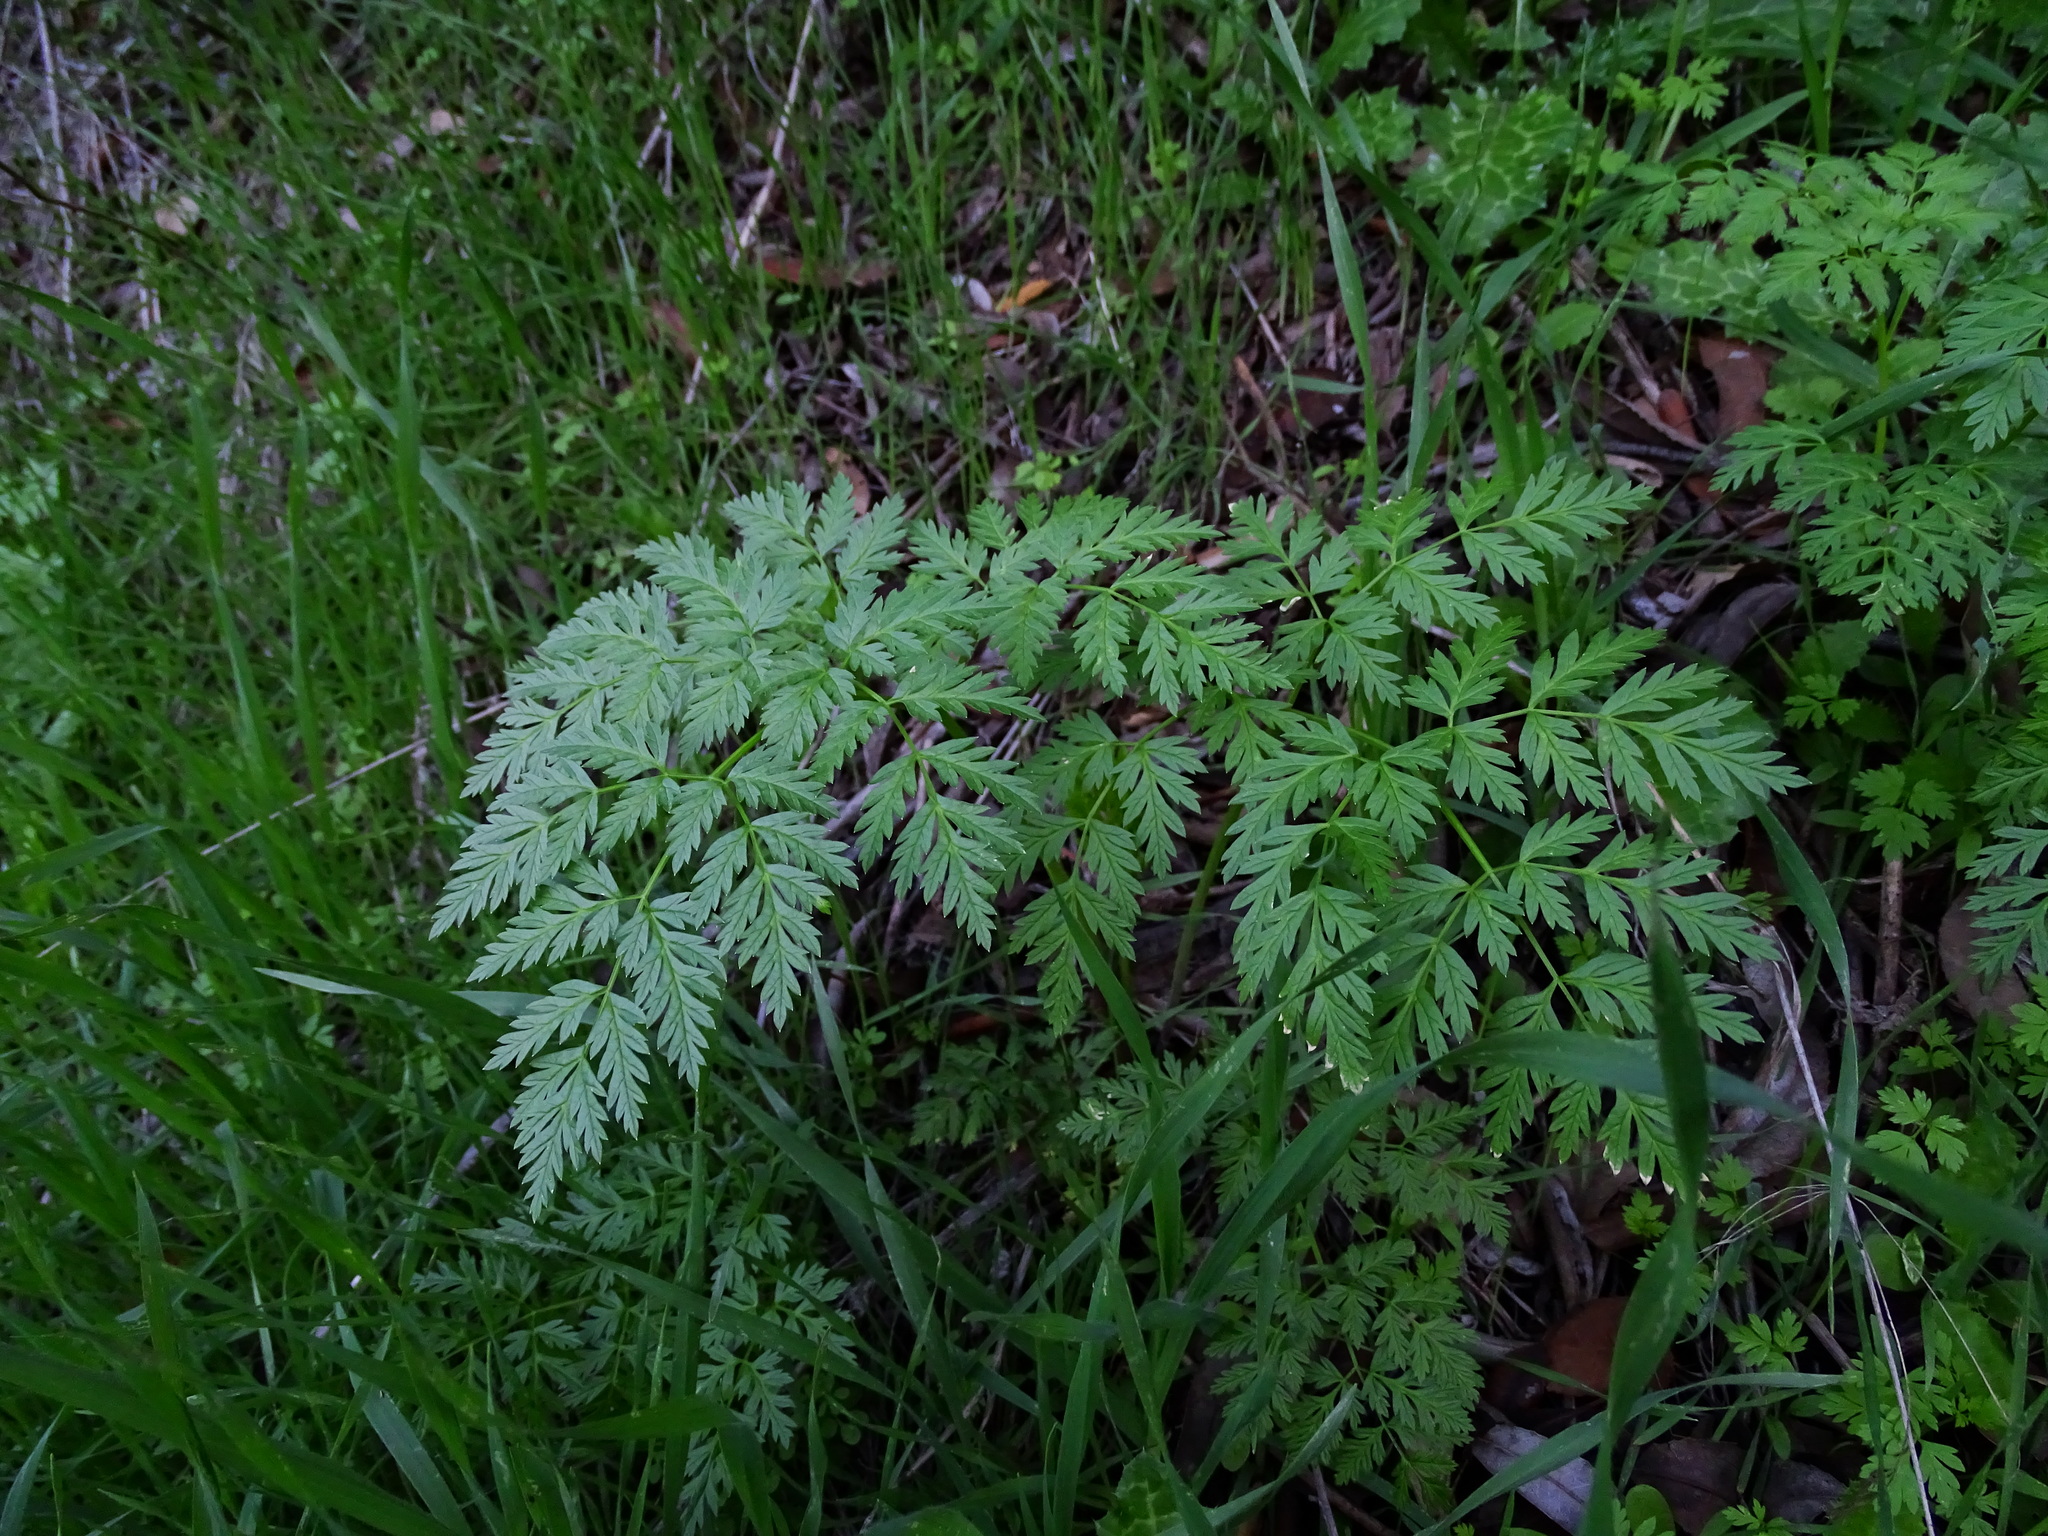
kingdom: Plantae
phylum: Tracheophyta
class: Magnoliopsida
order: Apiales
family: Apiaceae
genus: Conium
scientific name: Conium maculatum
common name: Hemlock
